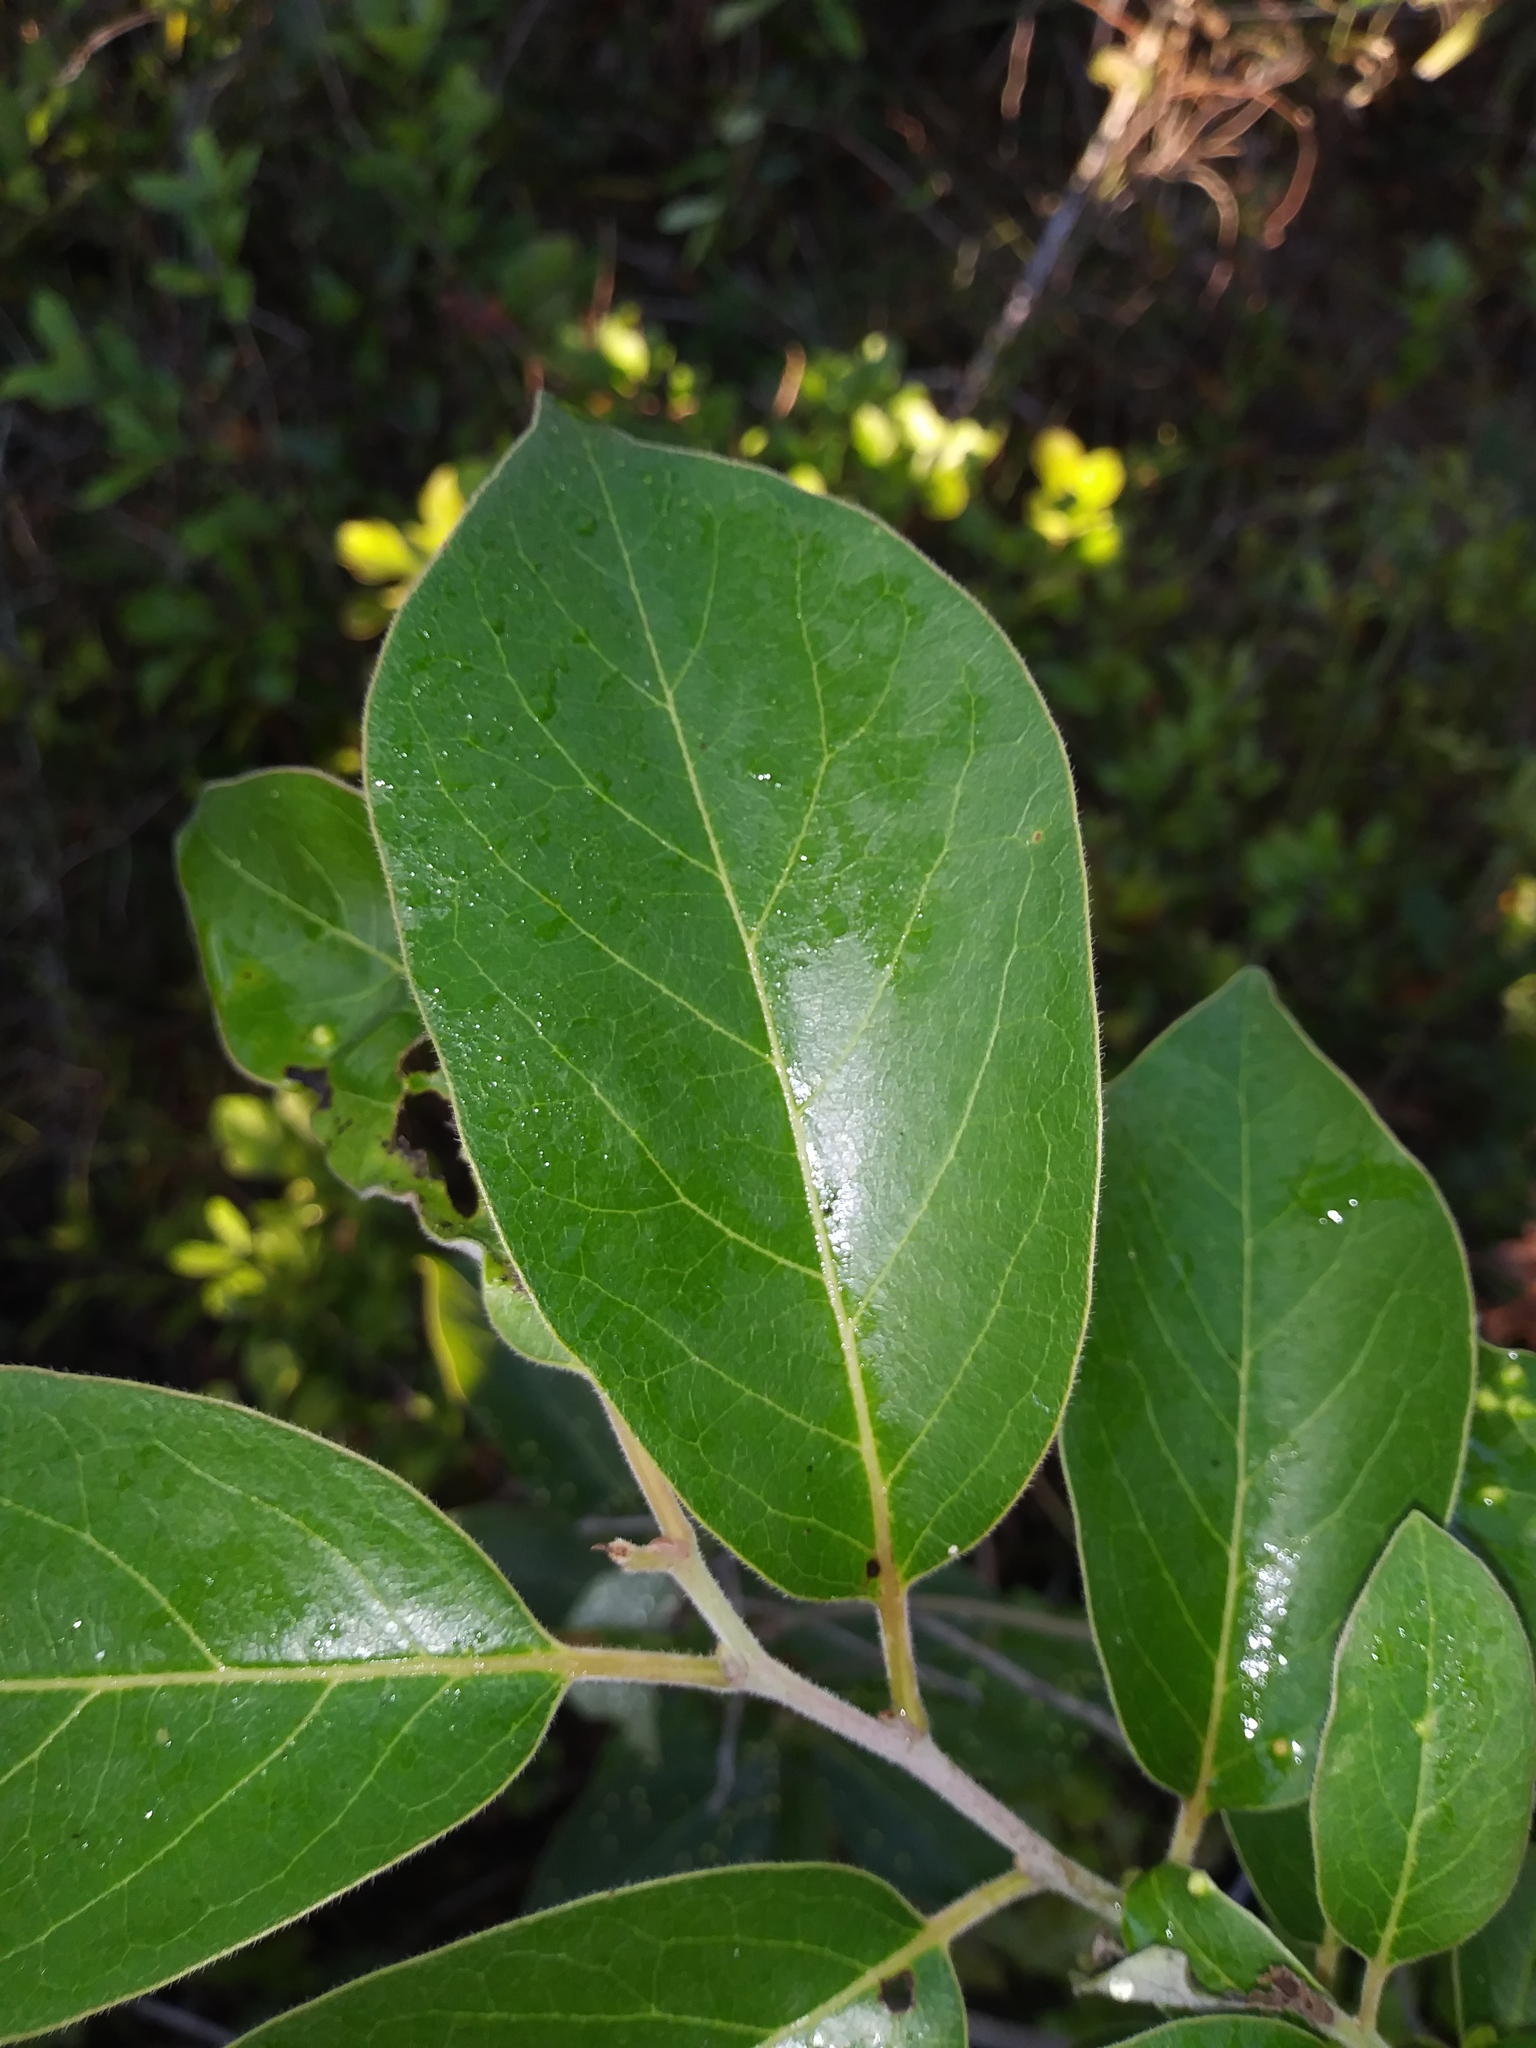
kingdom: Plantae
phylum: Tracheophyta
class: Magnoliopsida
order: Ericales
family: Ebenaceae
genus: Diospyros
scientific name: Diospyros virginiana
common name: Persimmon
